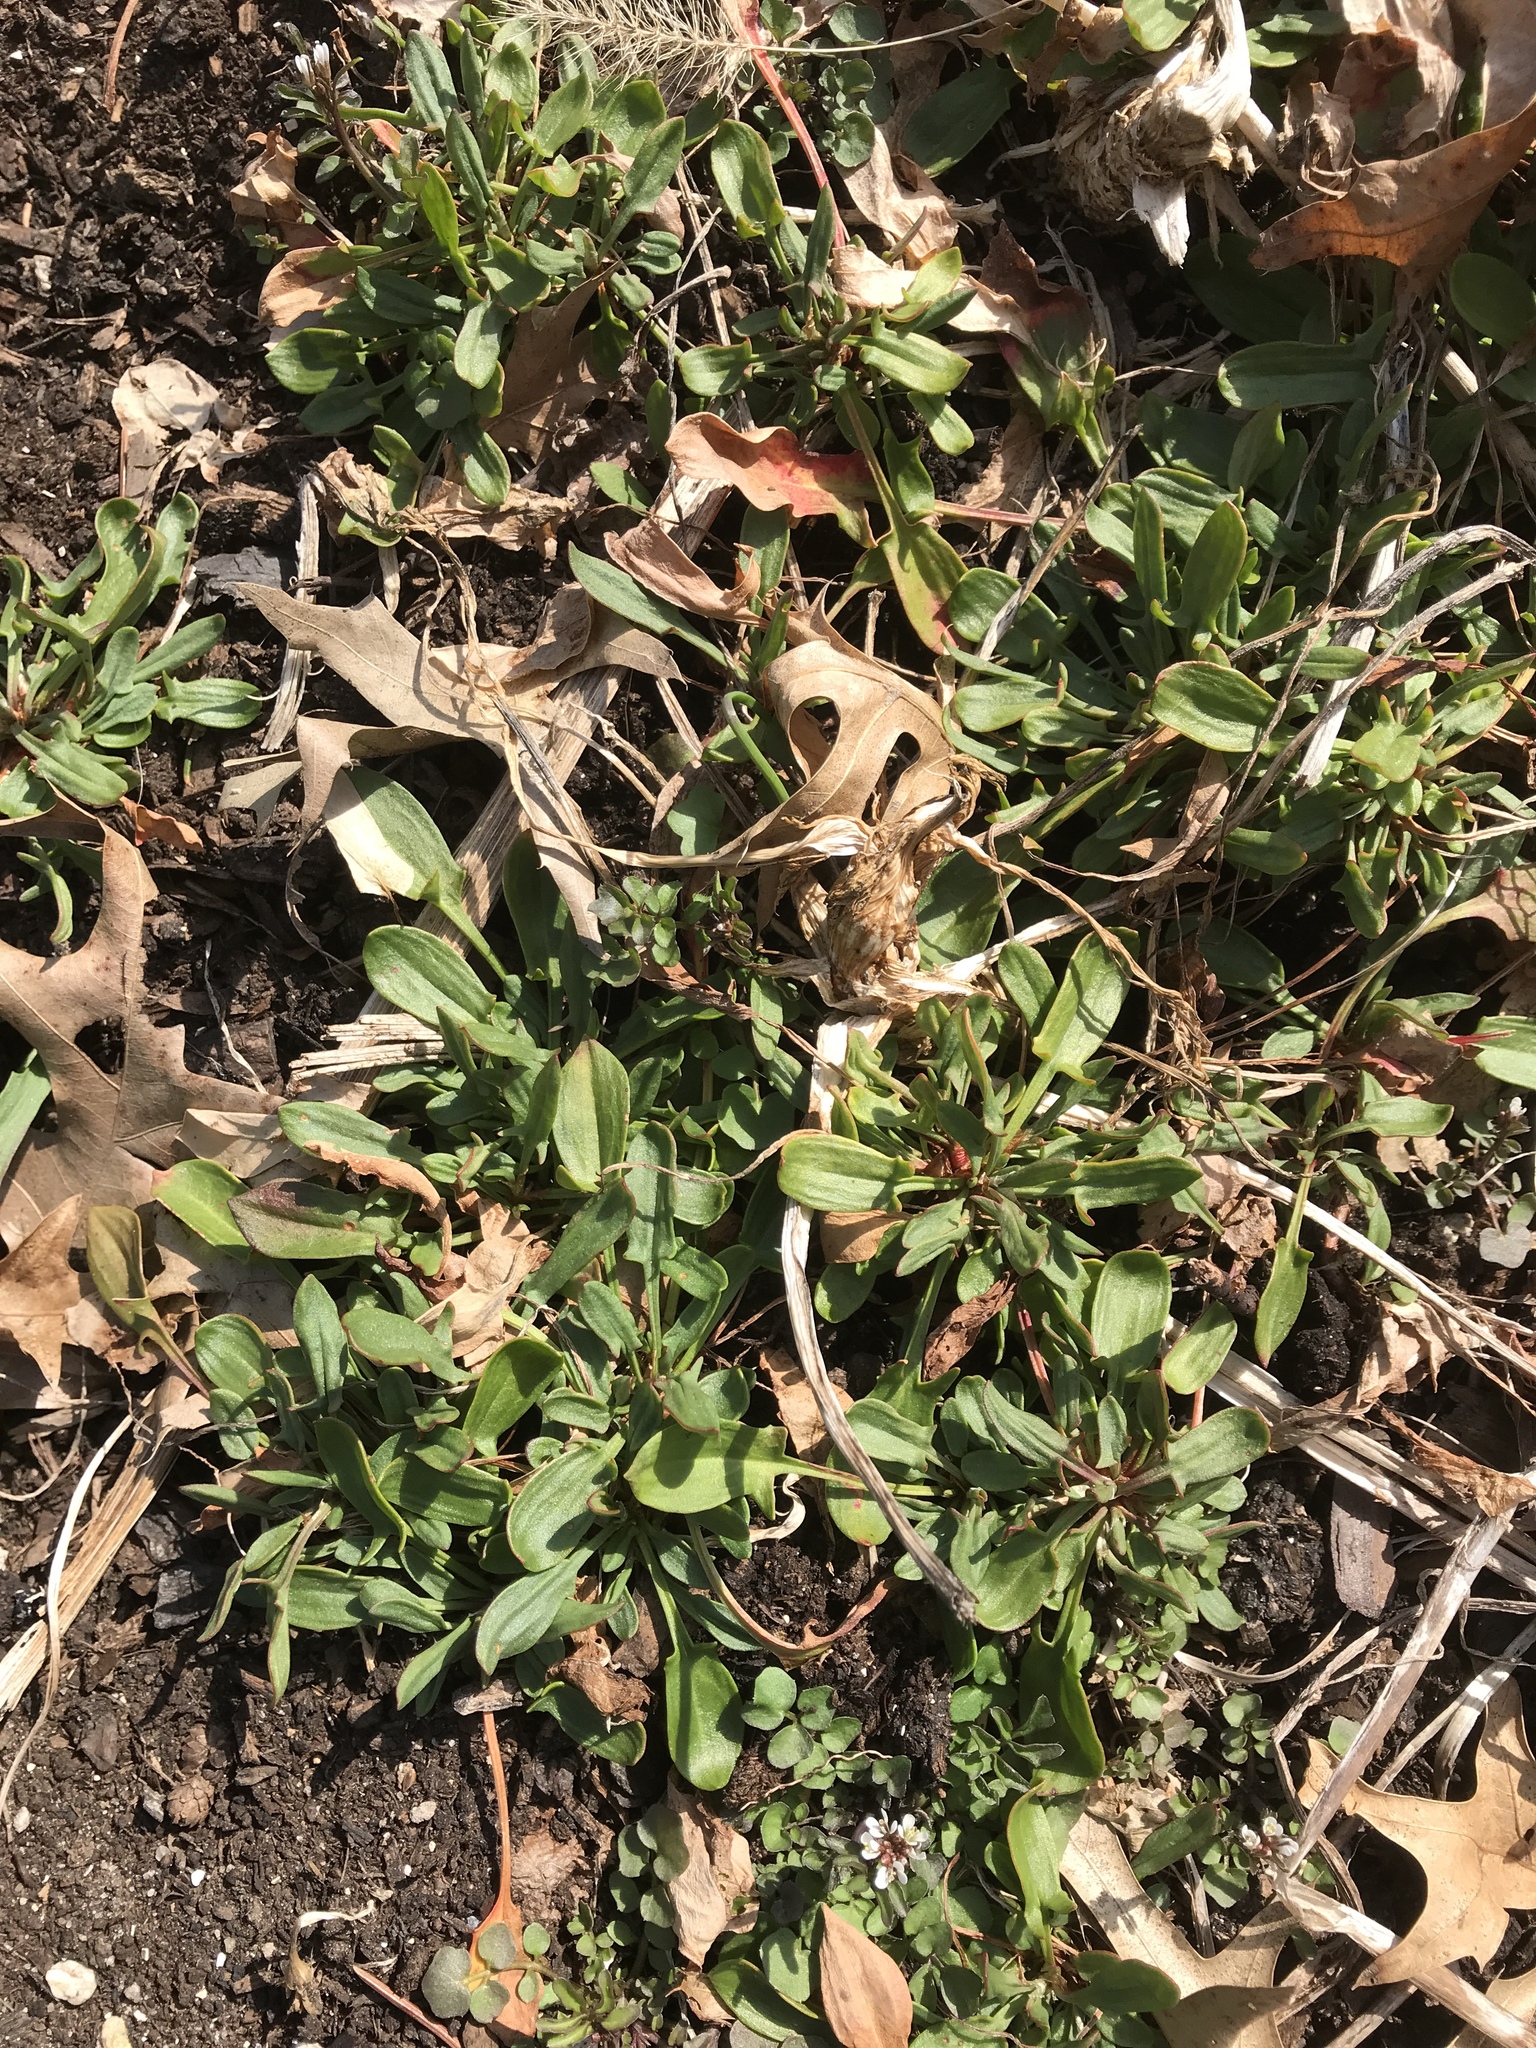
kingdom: Plantae
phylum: Tracheophyta
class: Magnoliopsida
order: Caryophyllales
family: Polygonaceae
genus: Rumex
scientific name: Rumex acetosella
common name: Common sheep sorrel
